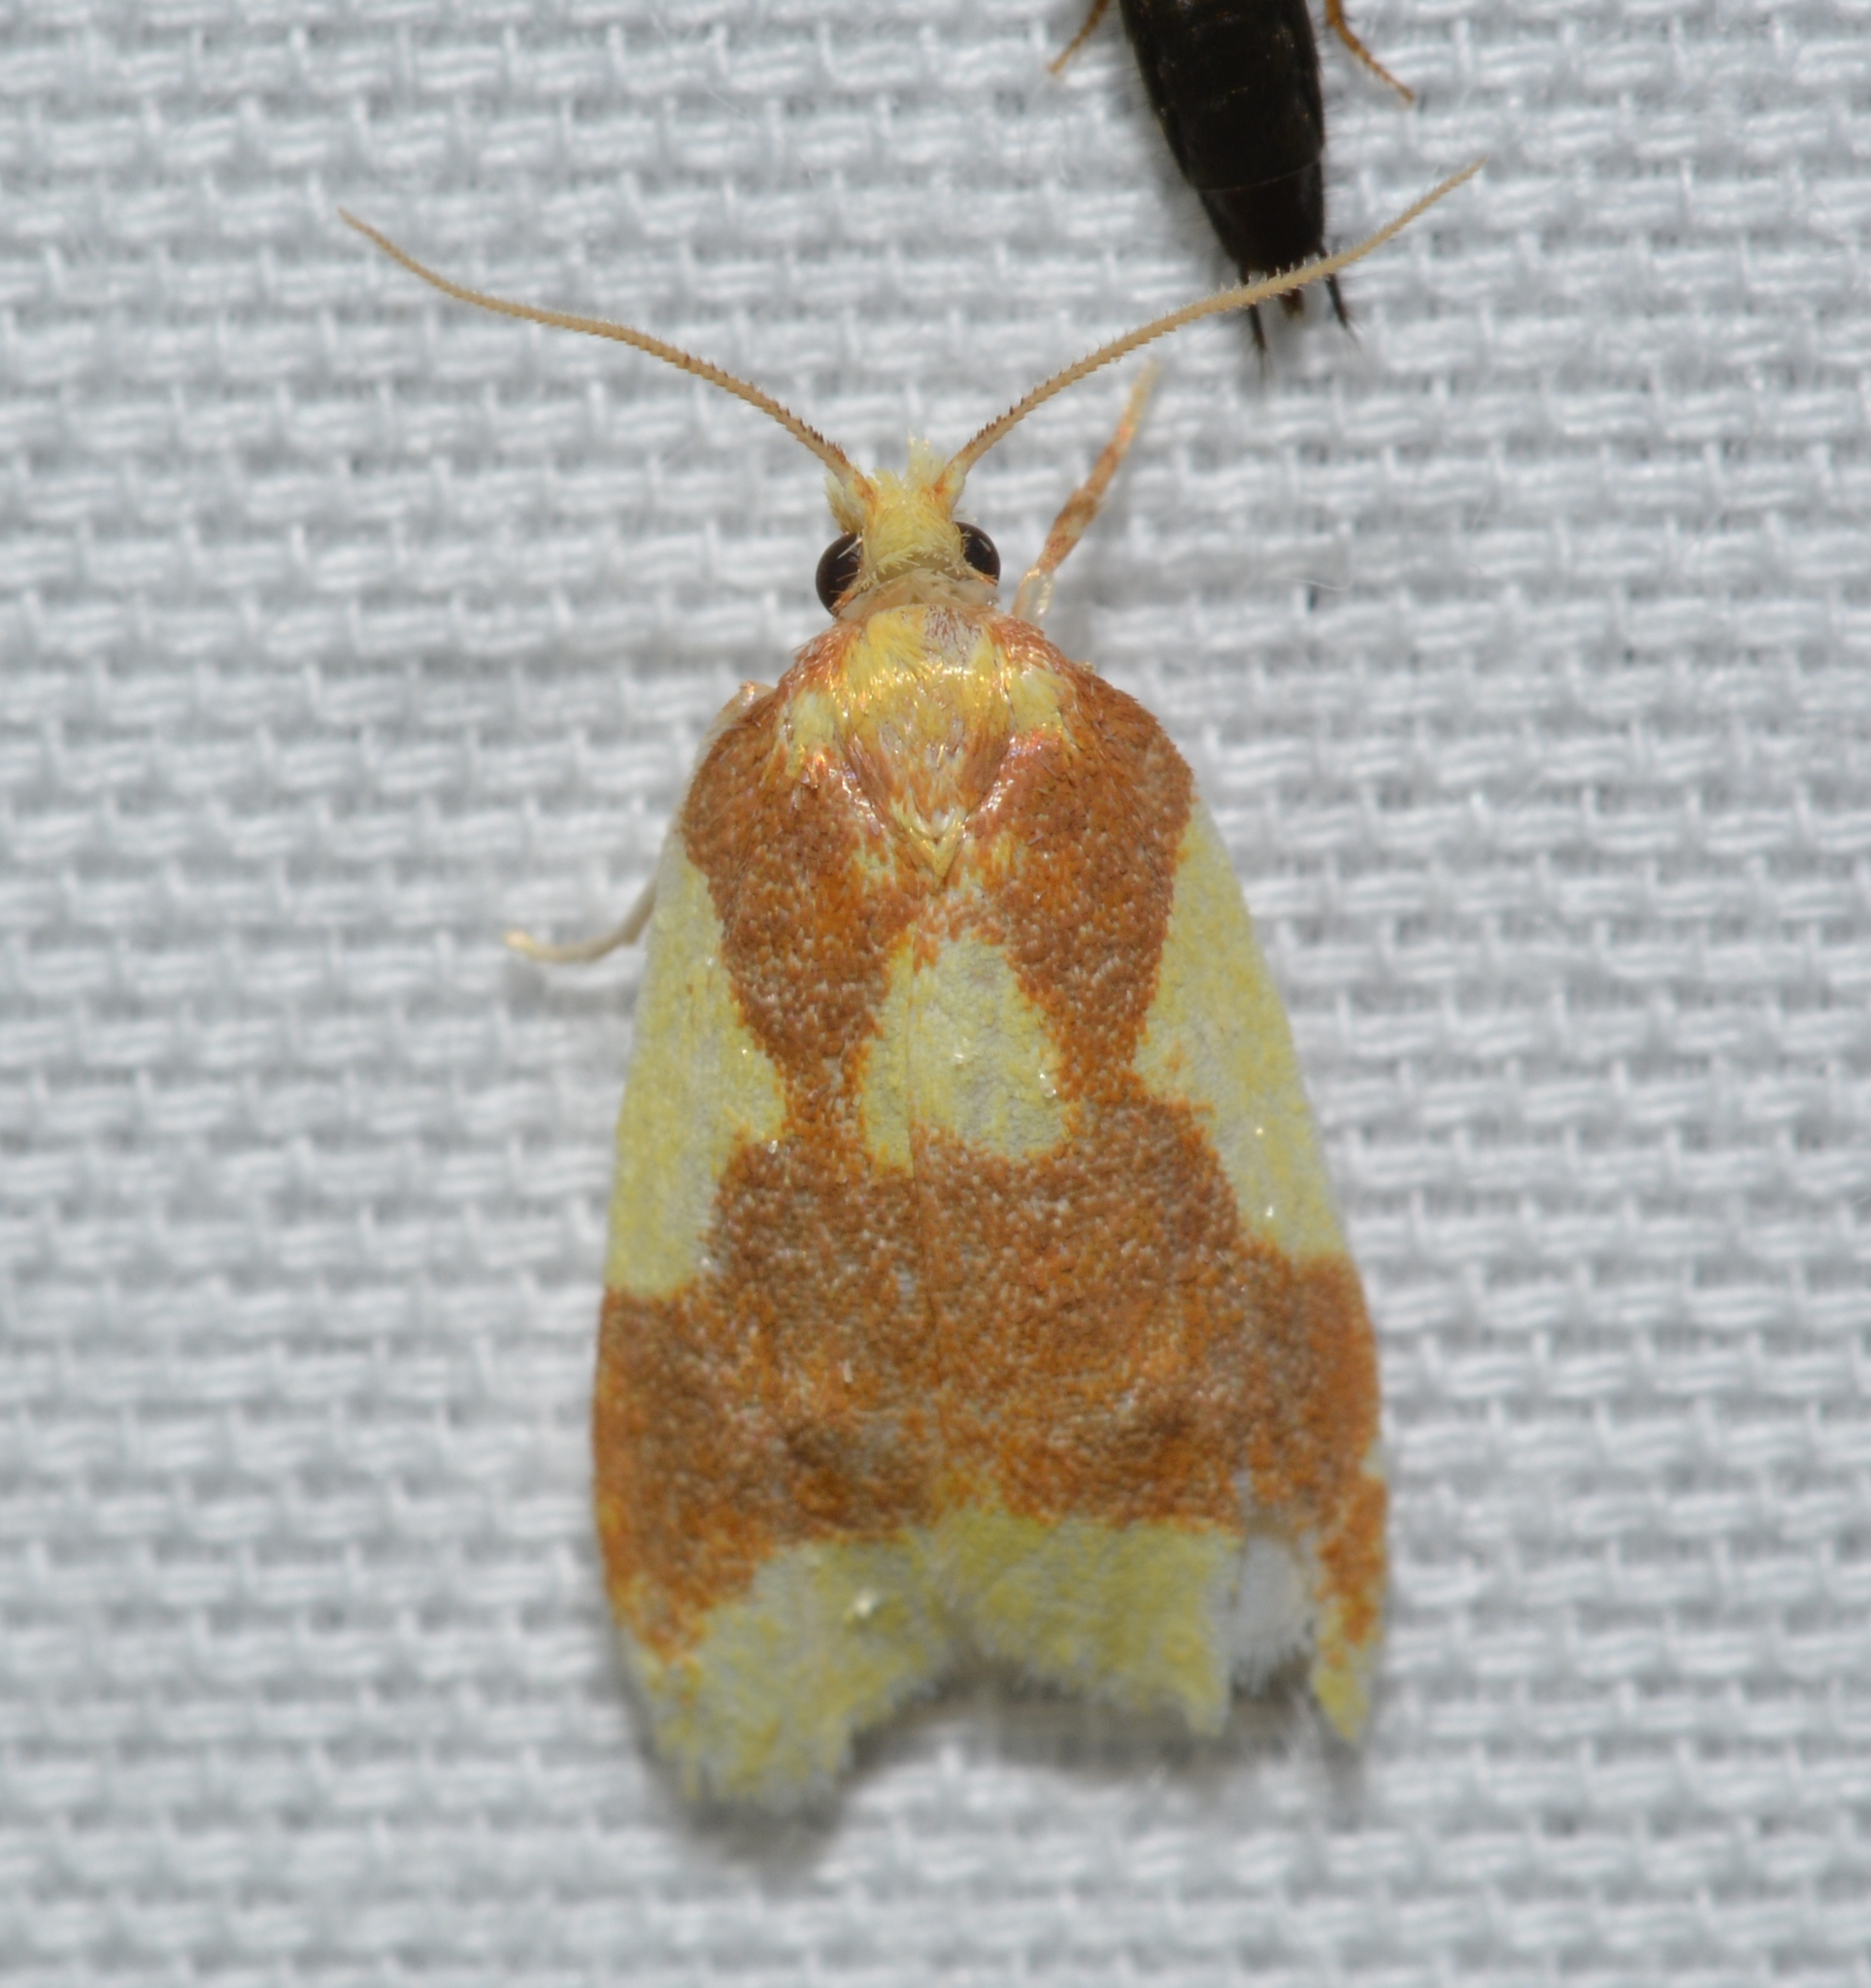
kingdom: Animalia
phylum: Arthropoda
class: Insecta
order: Lepidoptera
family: Tortricidae
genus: Sparganothis
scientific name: Sparganothis pulcherrimana
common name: Beautiful sparganothis
